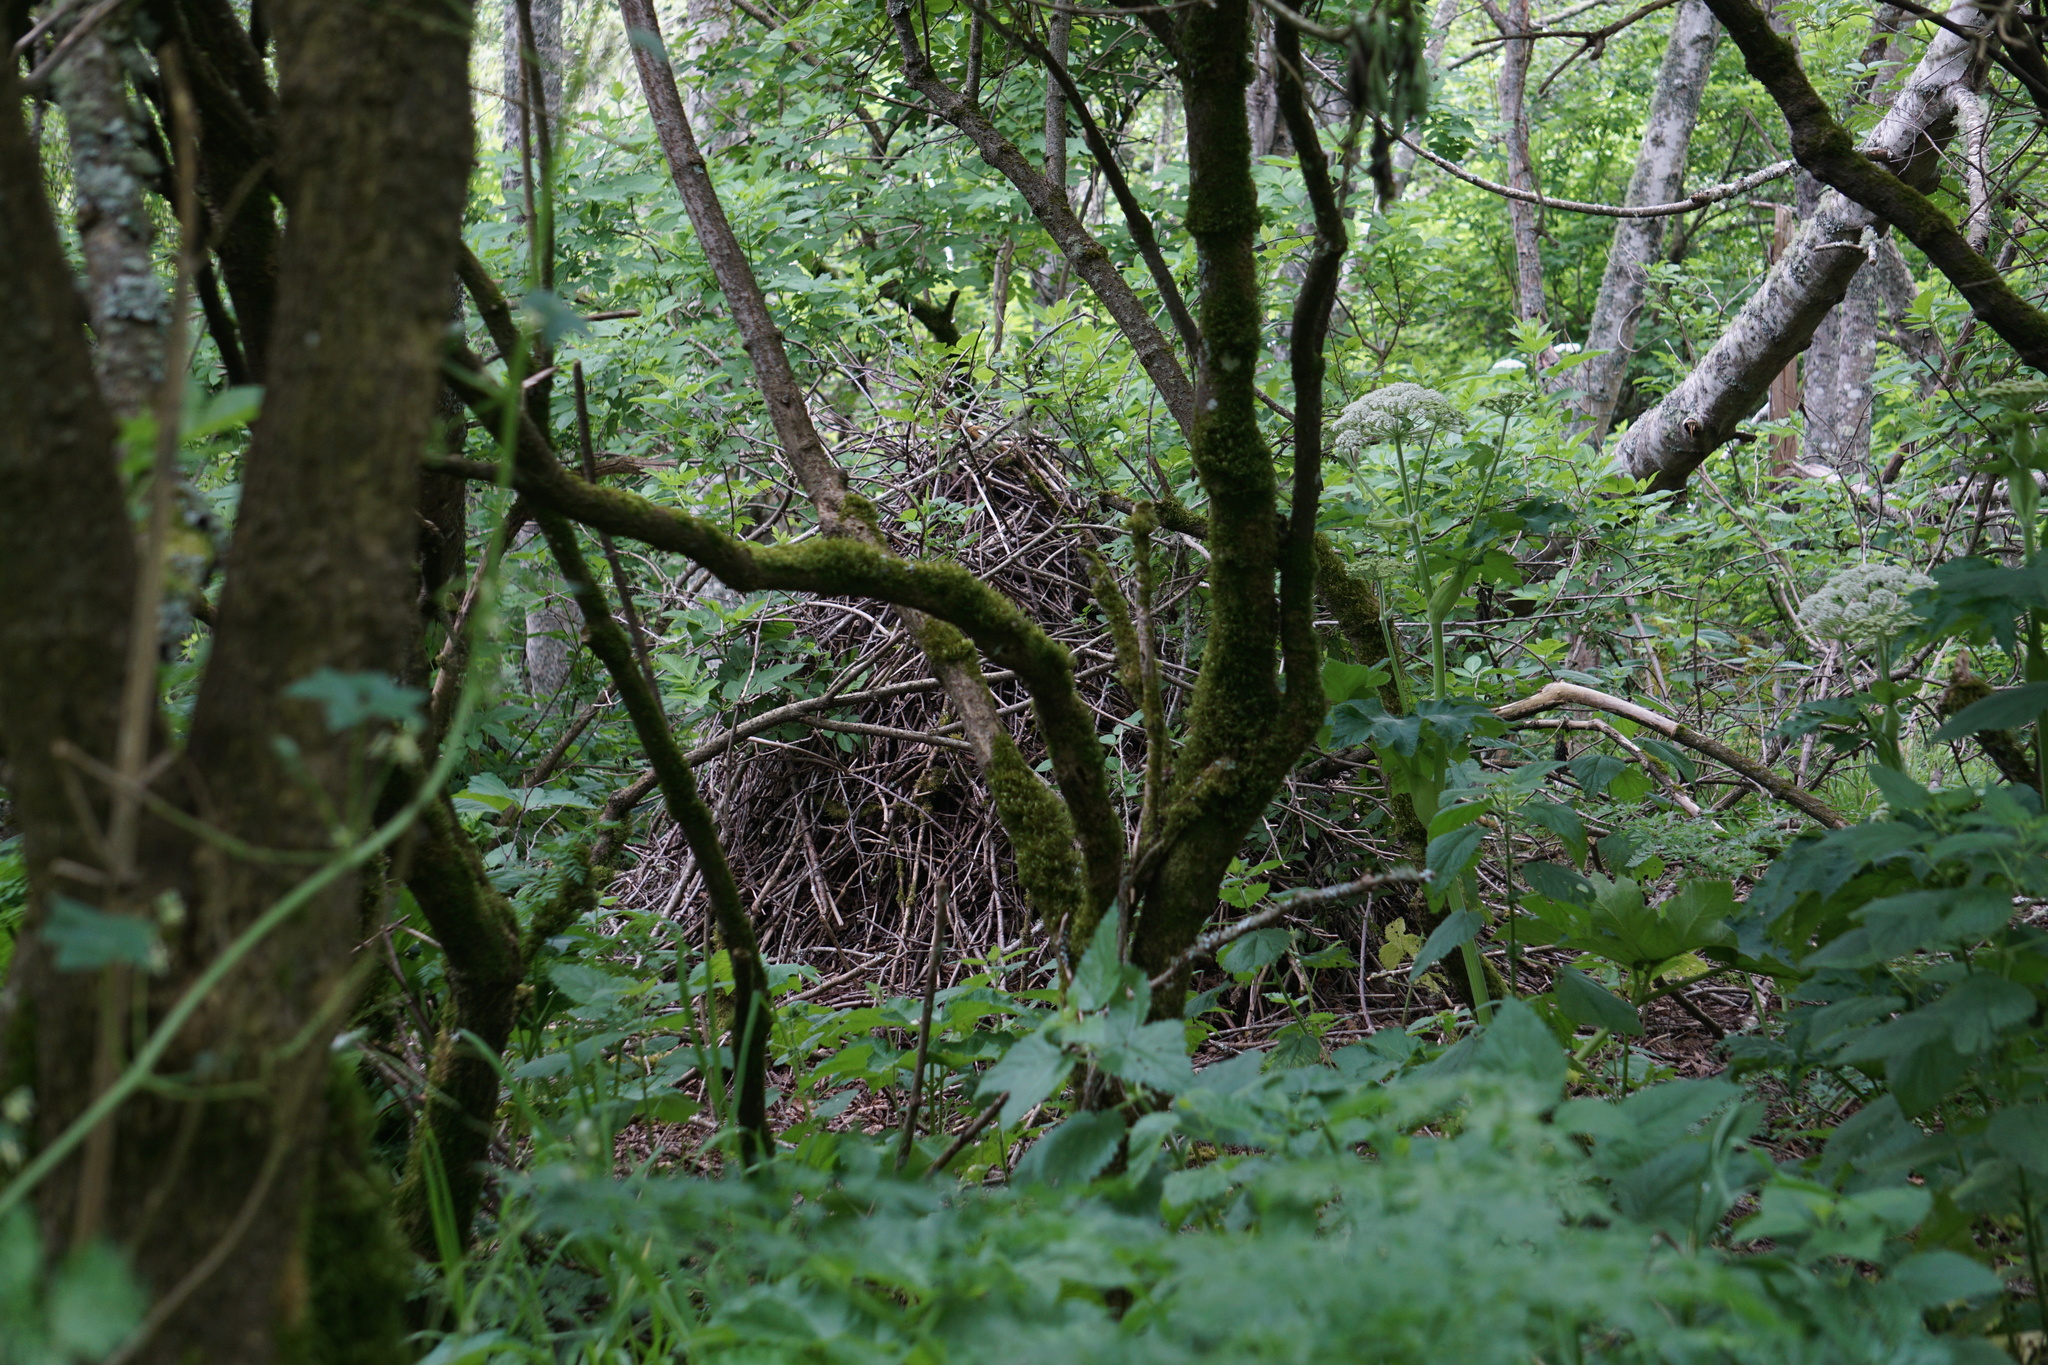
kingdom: Animalia
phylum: Chordata
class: Mammalia
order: Rodentia
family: Cricetidae
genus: Neotoma
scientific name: Neotoma fuscipes
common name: Dusky-footed woodrat
